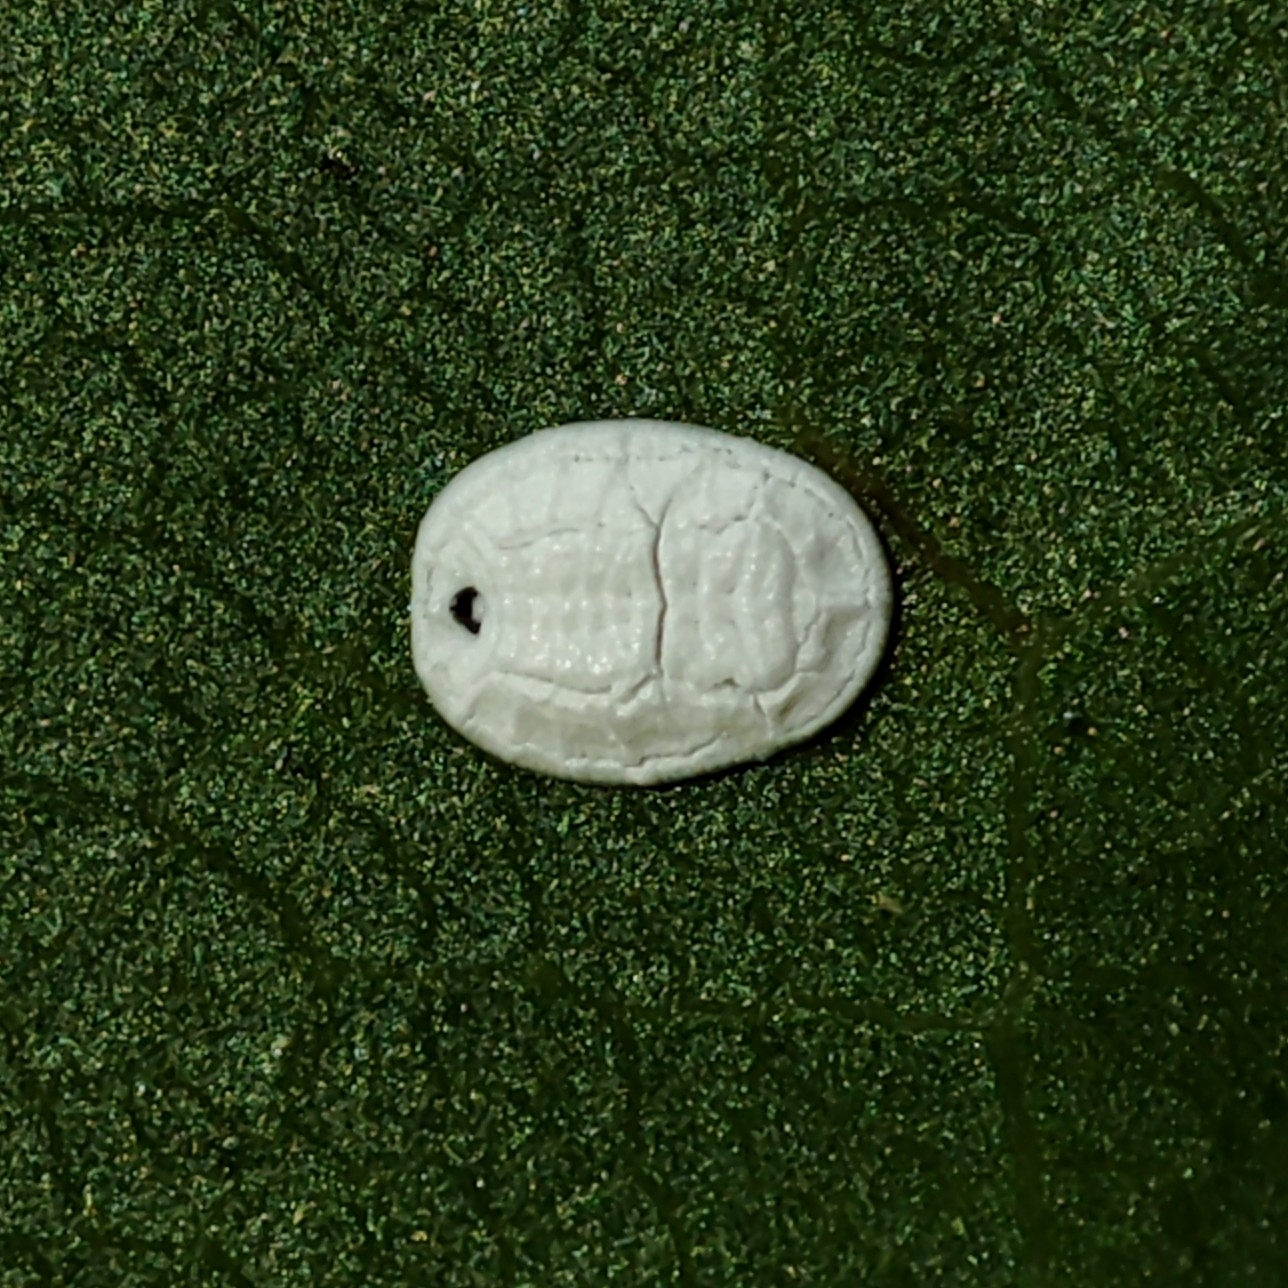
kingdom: Animalia
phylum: Arthropoda
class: Insecta
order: Hemiptera
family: Aleyrodidae
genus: Aleurochiton
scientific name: Aleurochiton aceris
